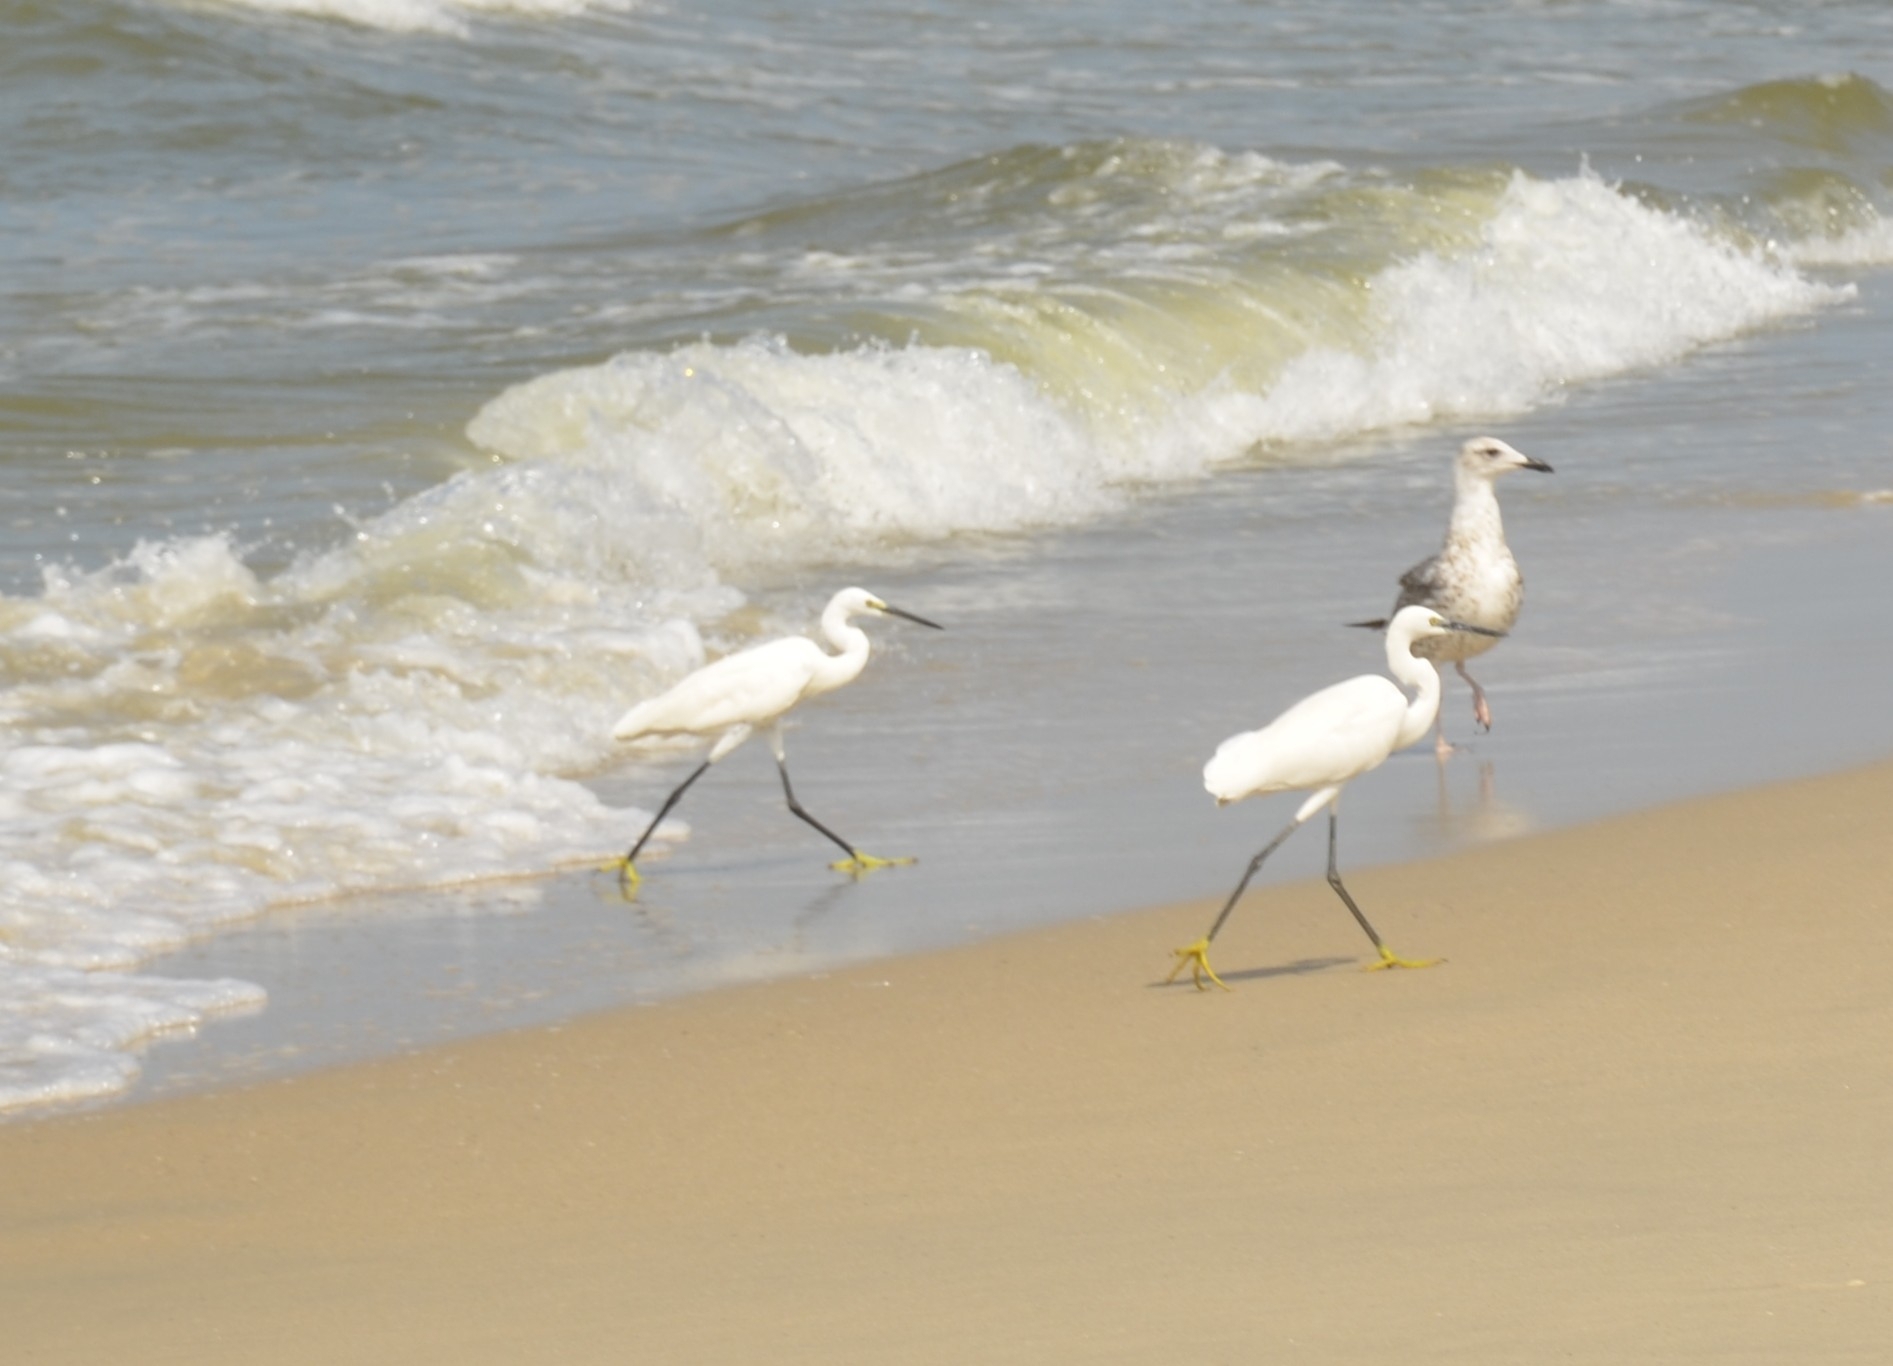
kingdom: Animalia
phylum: Chordata
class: Aves
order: Pelecaniformes
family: Ardeidae
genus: Egretta
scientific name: Egretta garzetta
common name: Little egret
